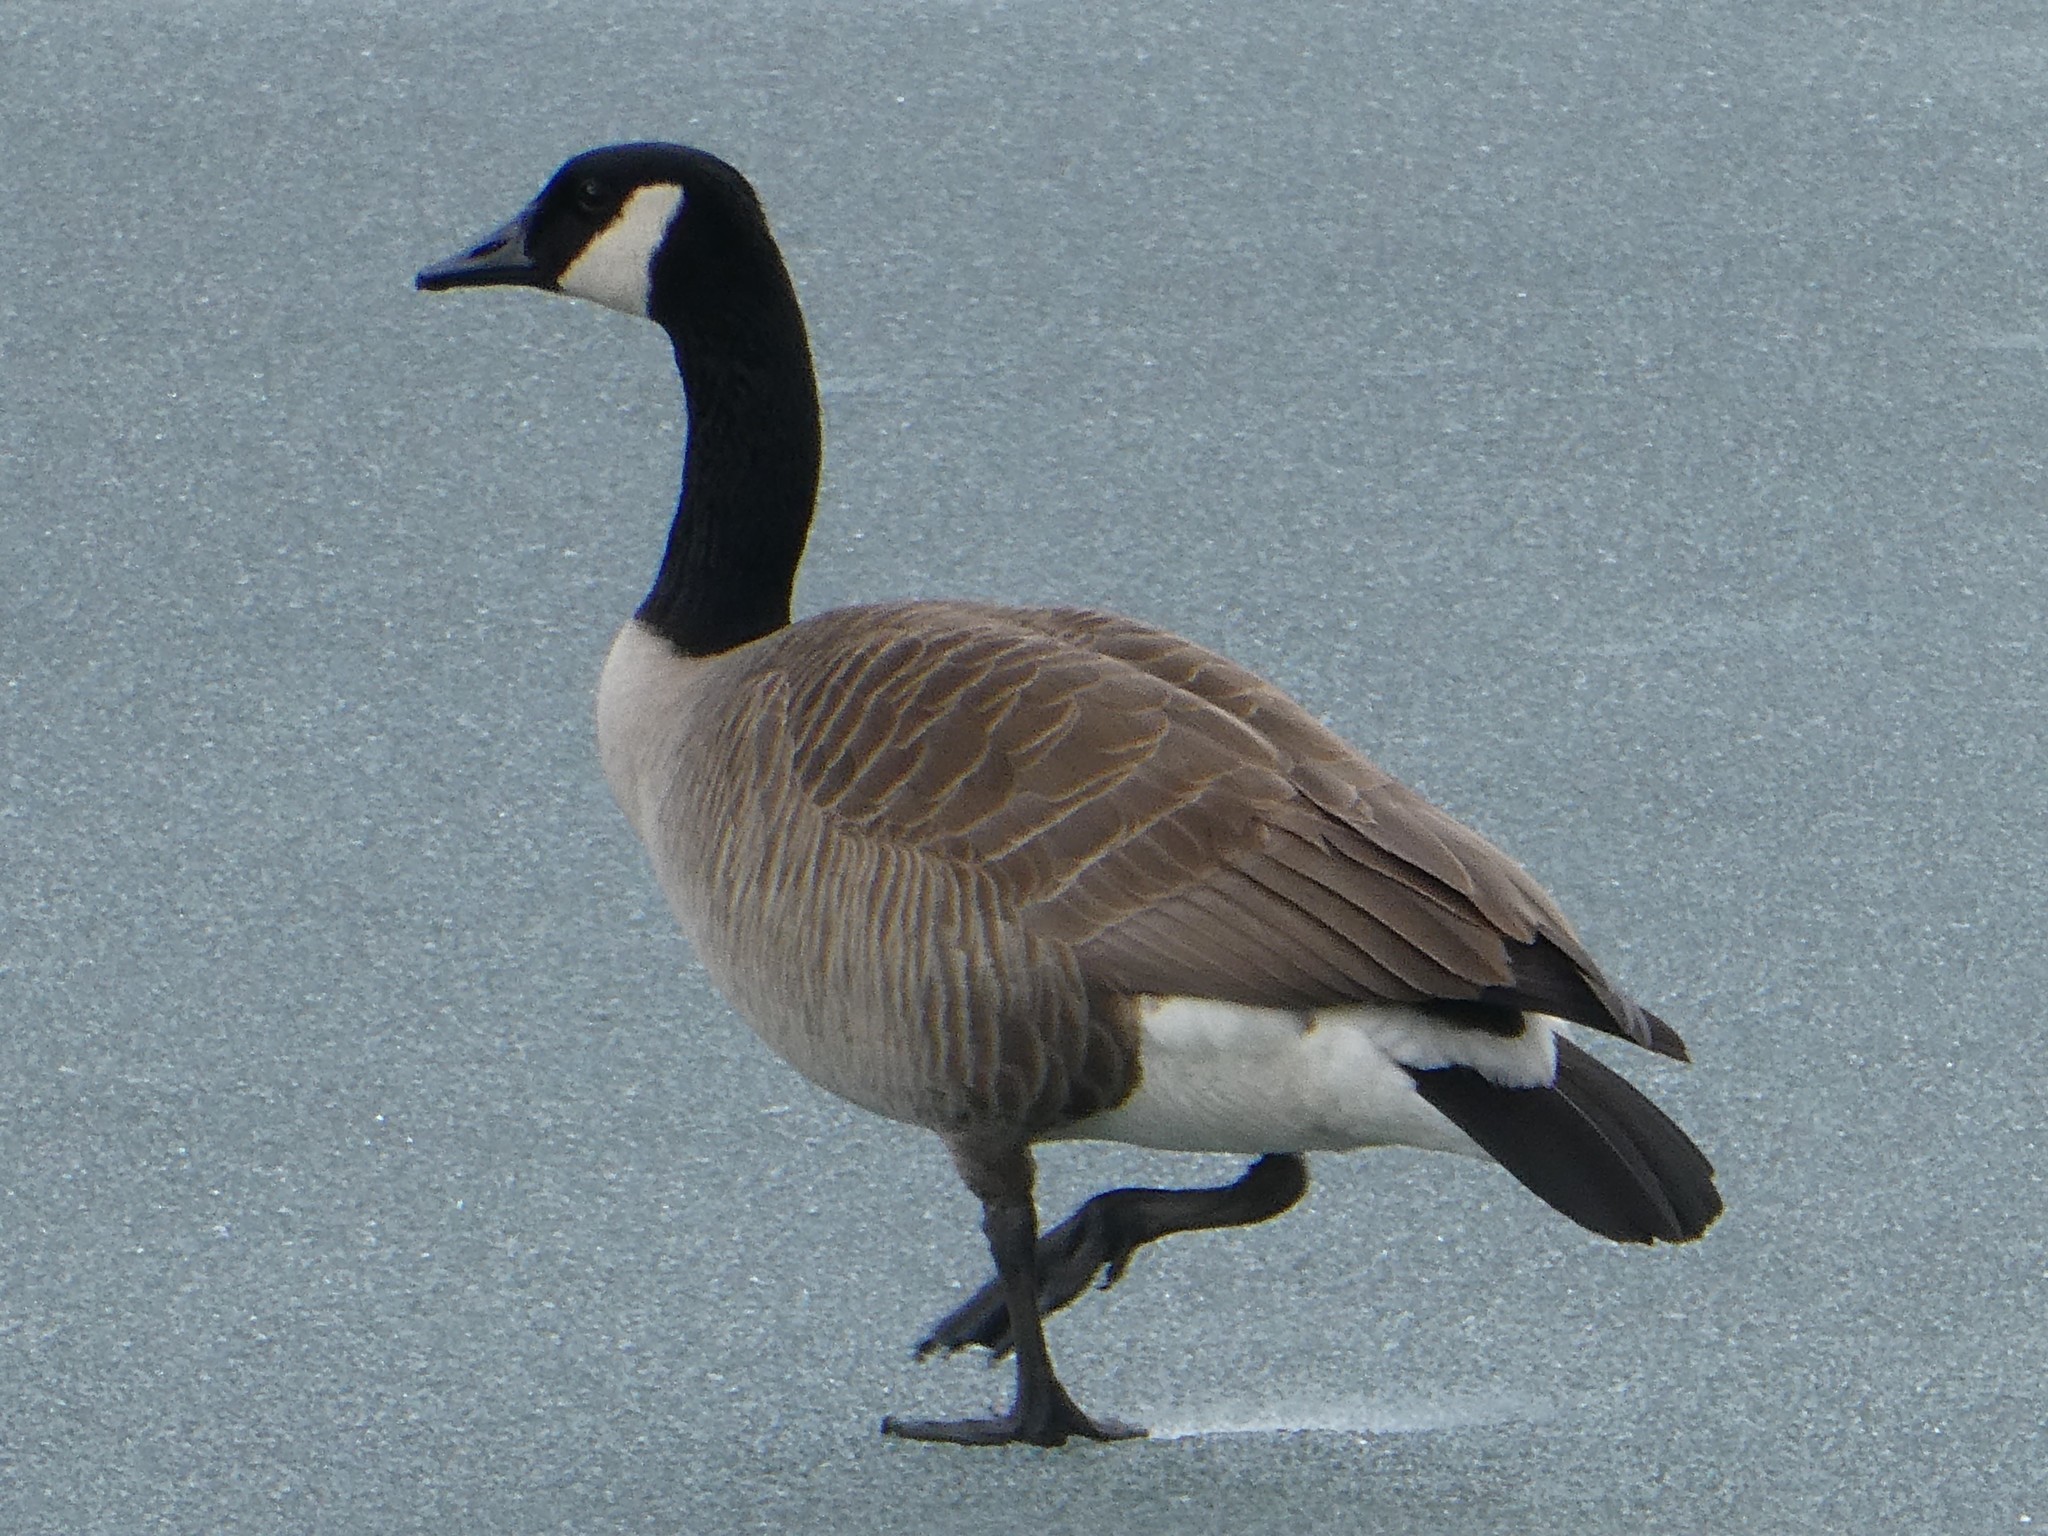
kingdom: Animalia
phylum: Chordata
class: Aves
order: Anseriformes
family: Anatidae
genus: Branta
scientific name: Branta canadensis
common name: Canada goose
